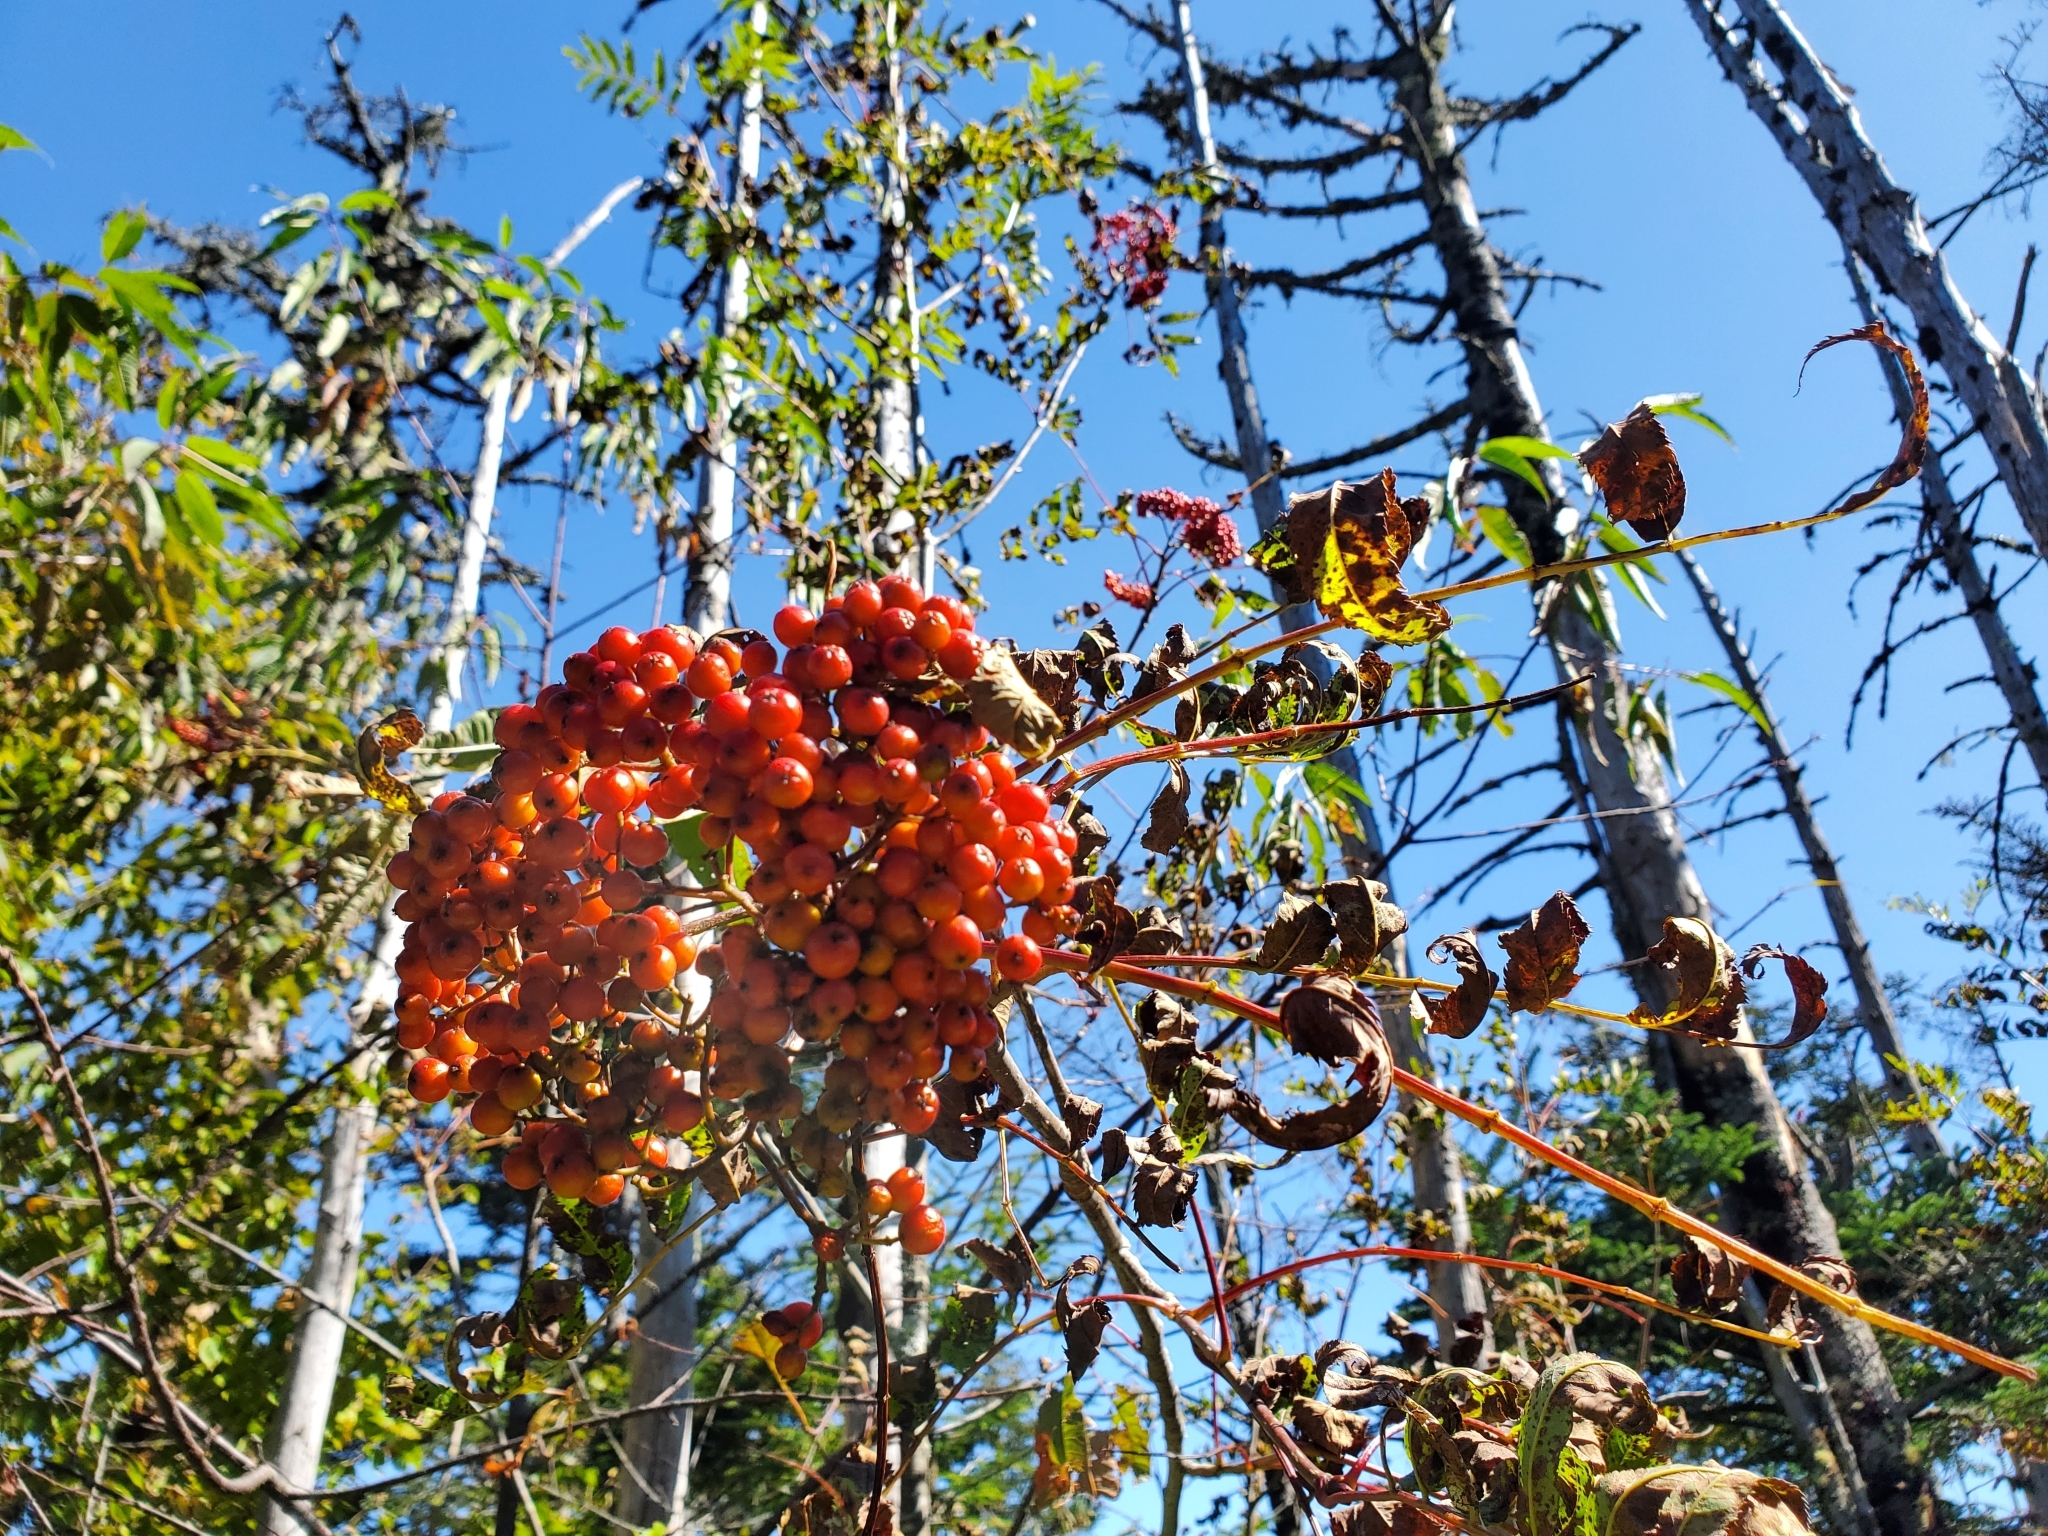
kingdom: Plantae
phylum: Tracheophyta
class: Magnoliopsida
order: Rosales
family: Rosaceae
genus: Sorbus
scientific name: Sorbus americana
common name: American mountain-ash
